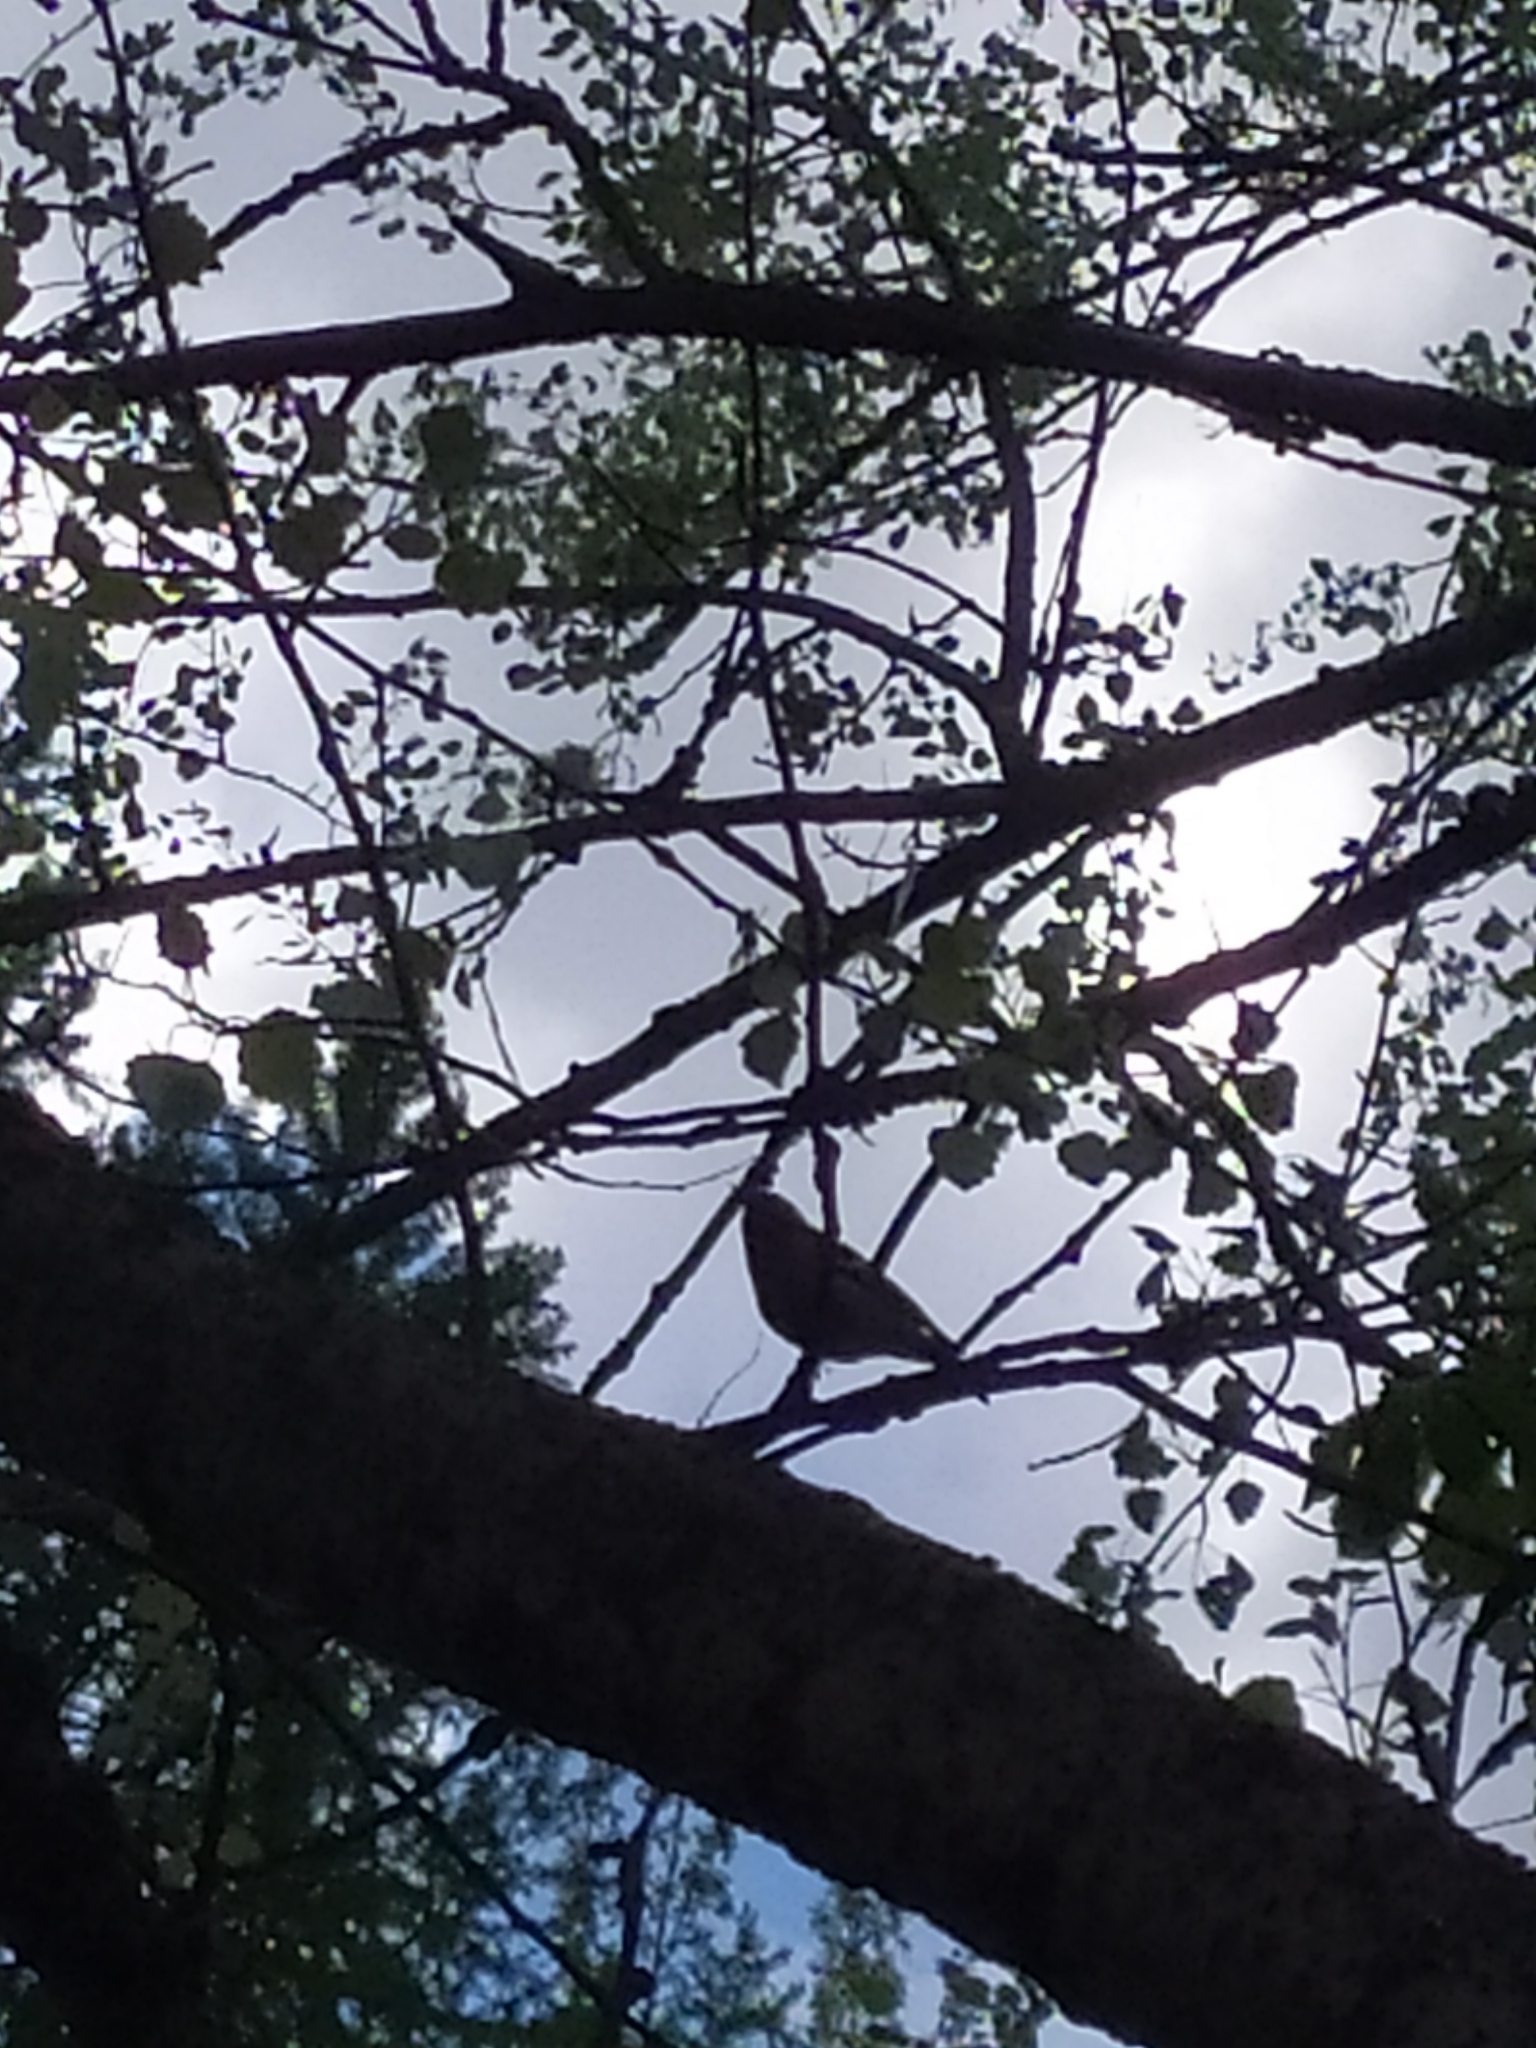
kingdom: Animalia
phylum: Chordata
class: Aves
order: Passeriformes
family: Fringillidae
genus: Fringilla
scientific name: Fringilla coelebs
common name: Common chaffinch
